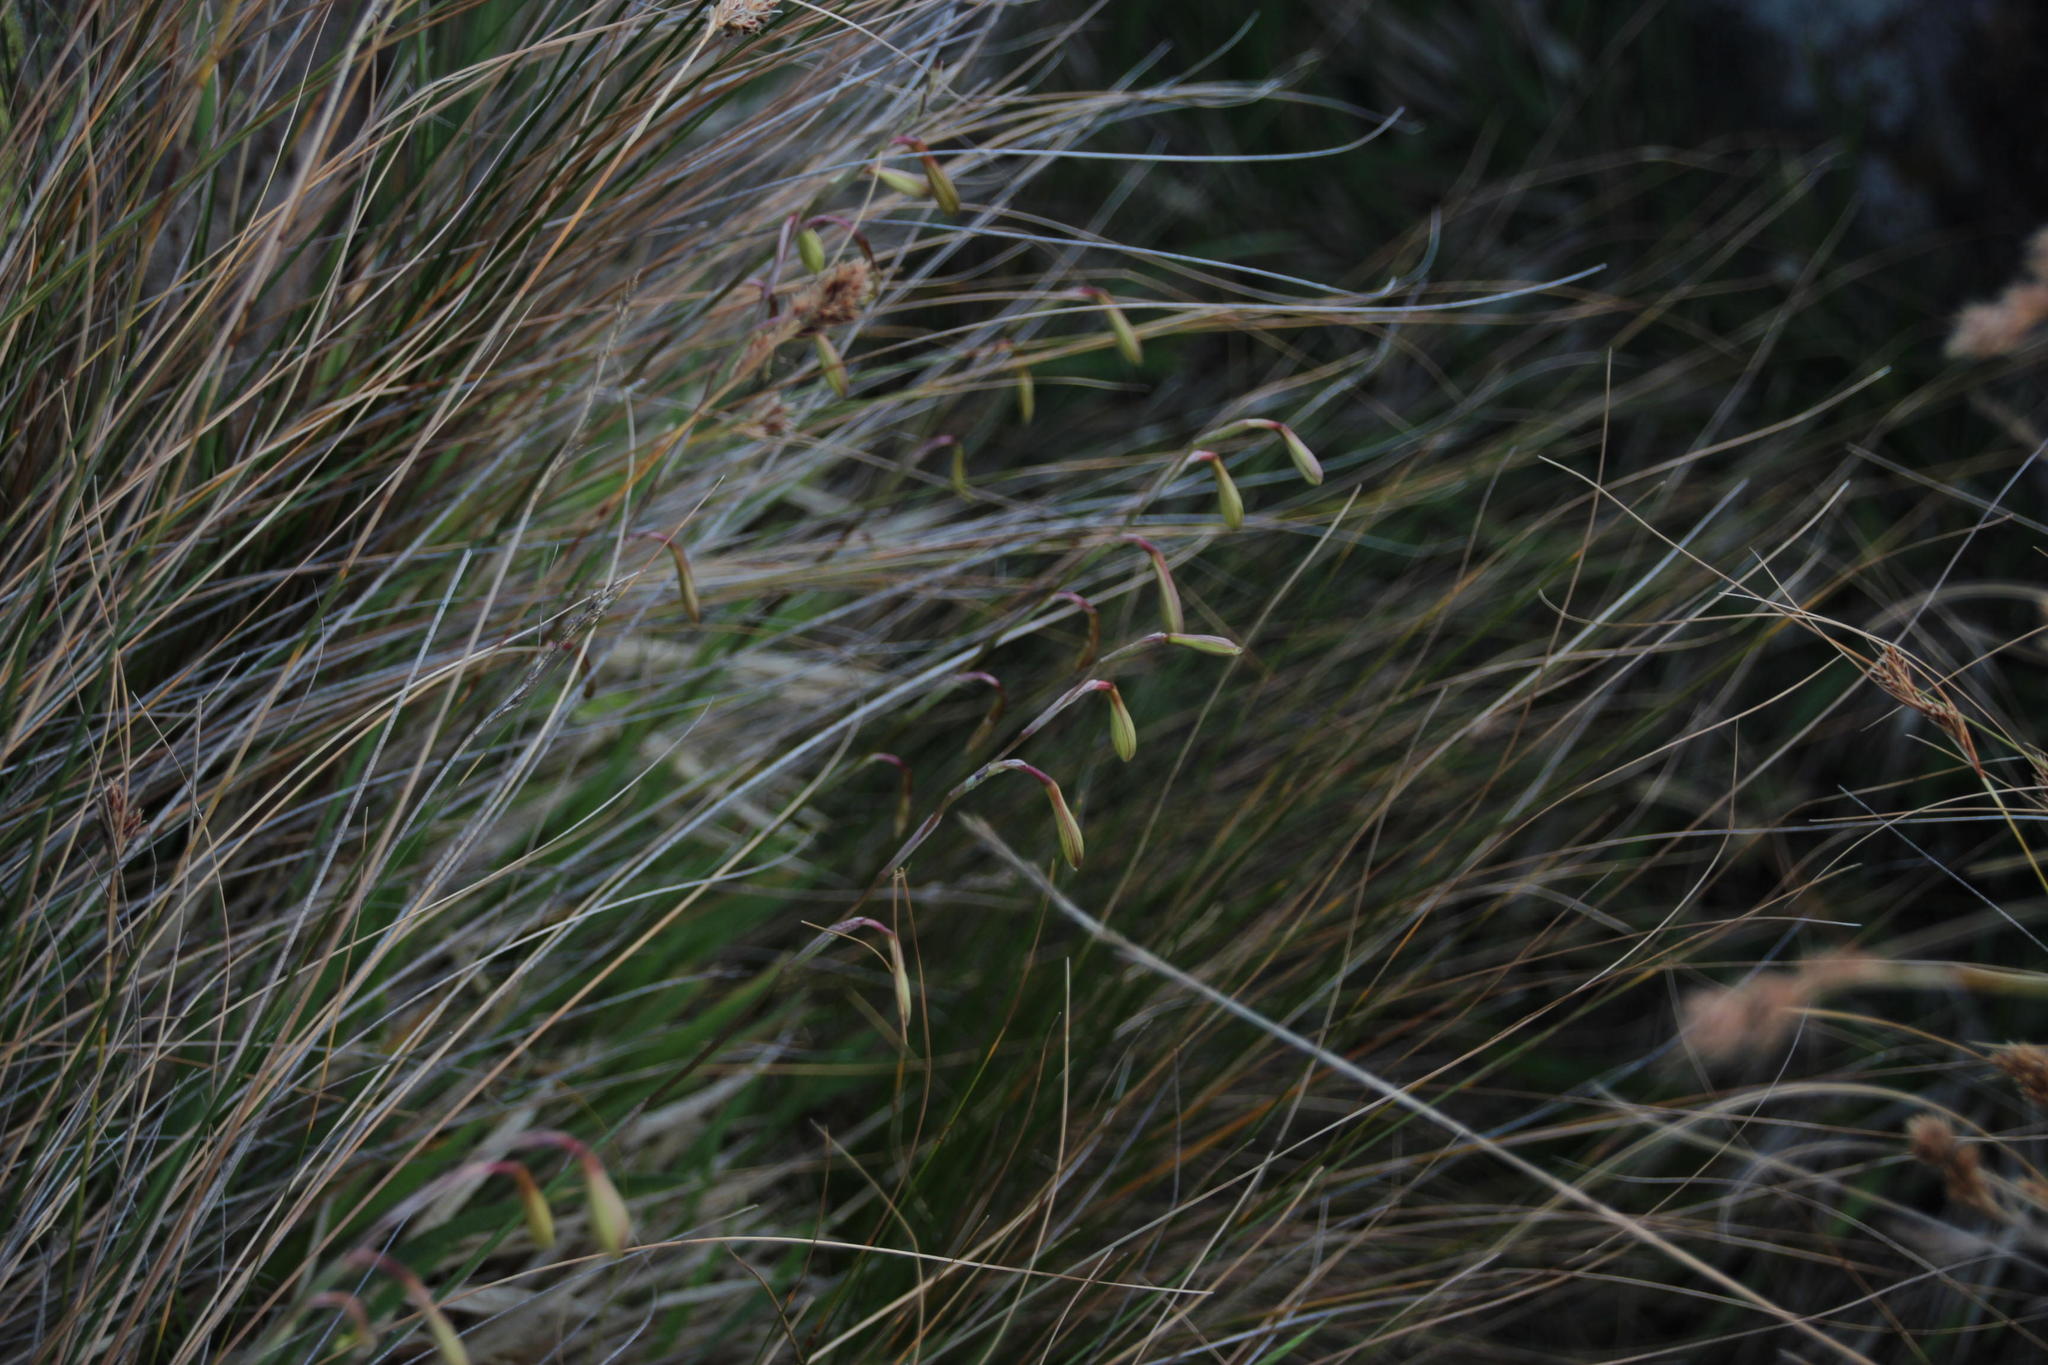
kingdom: Plantae
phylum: Tracheophyta
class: Liliopsida
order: Asparagales
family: Iridaceae
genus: Hesperantha
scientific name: Hesperantha radiata
